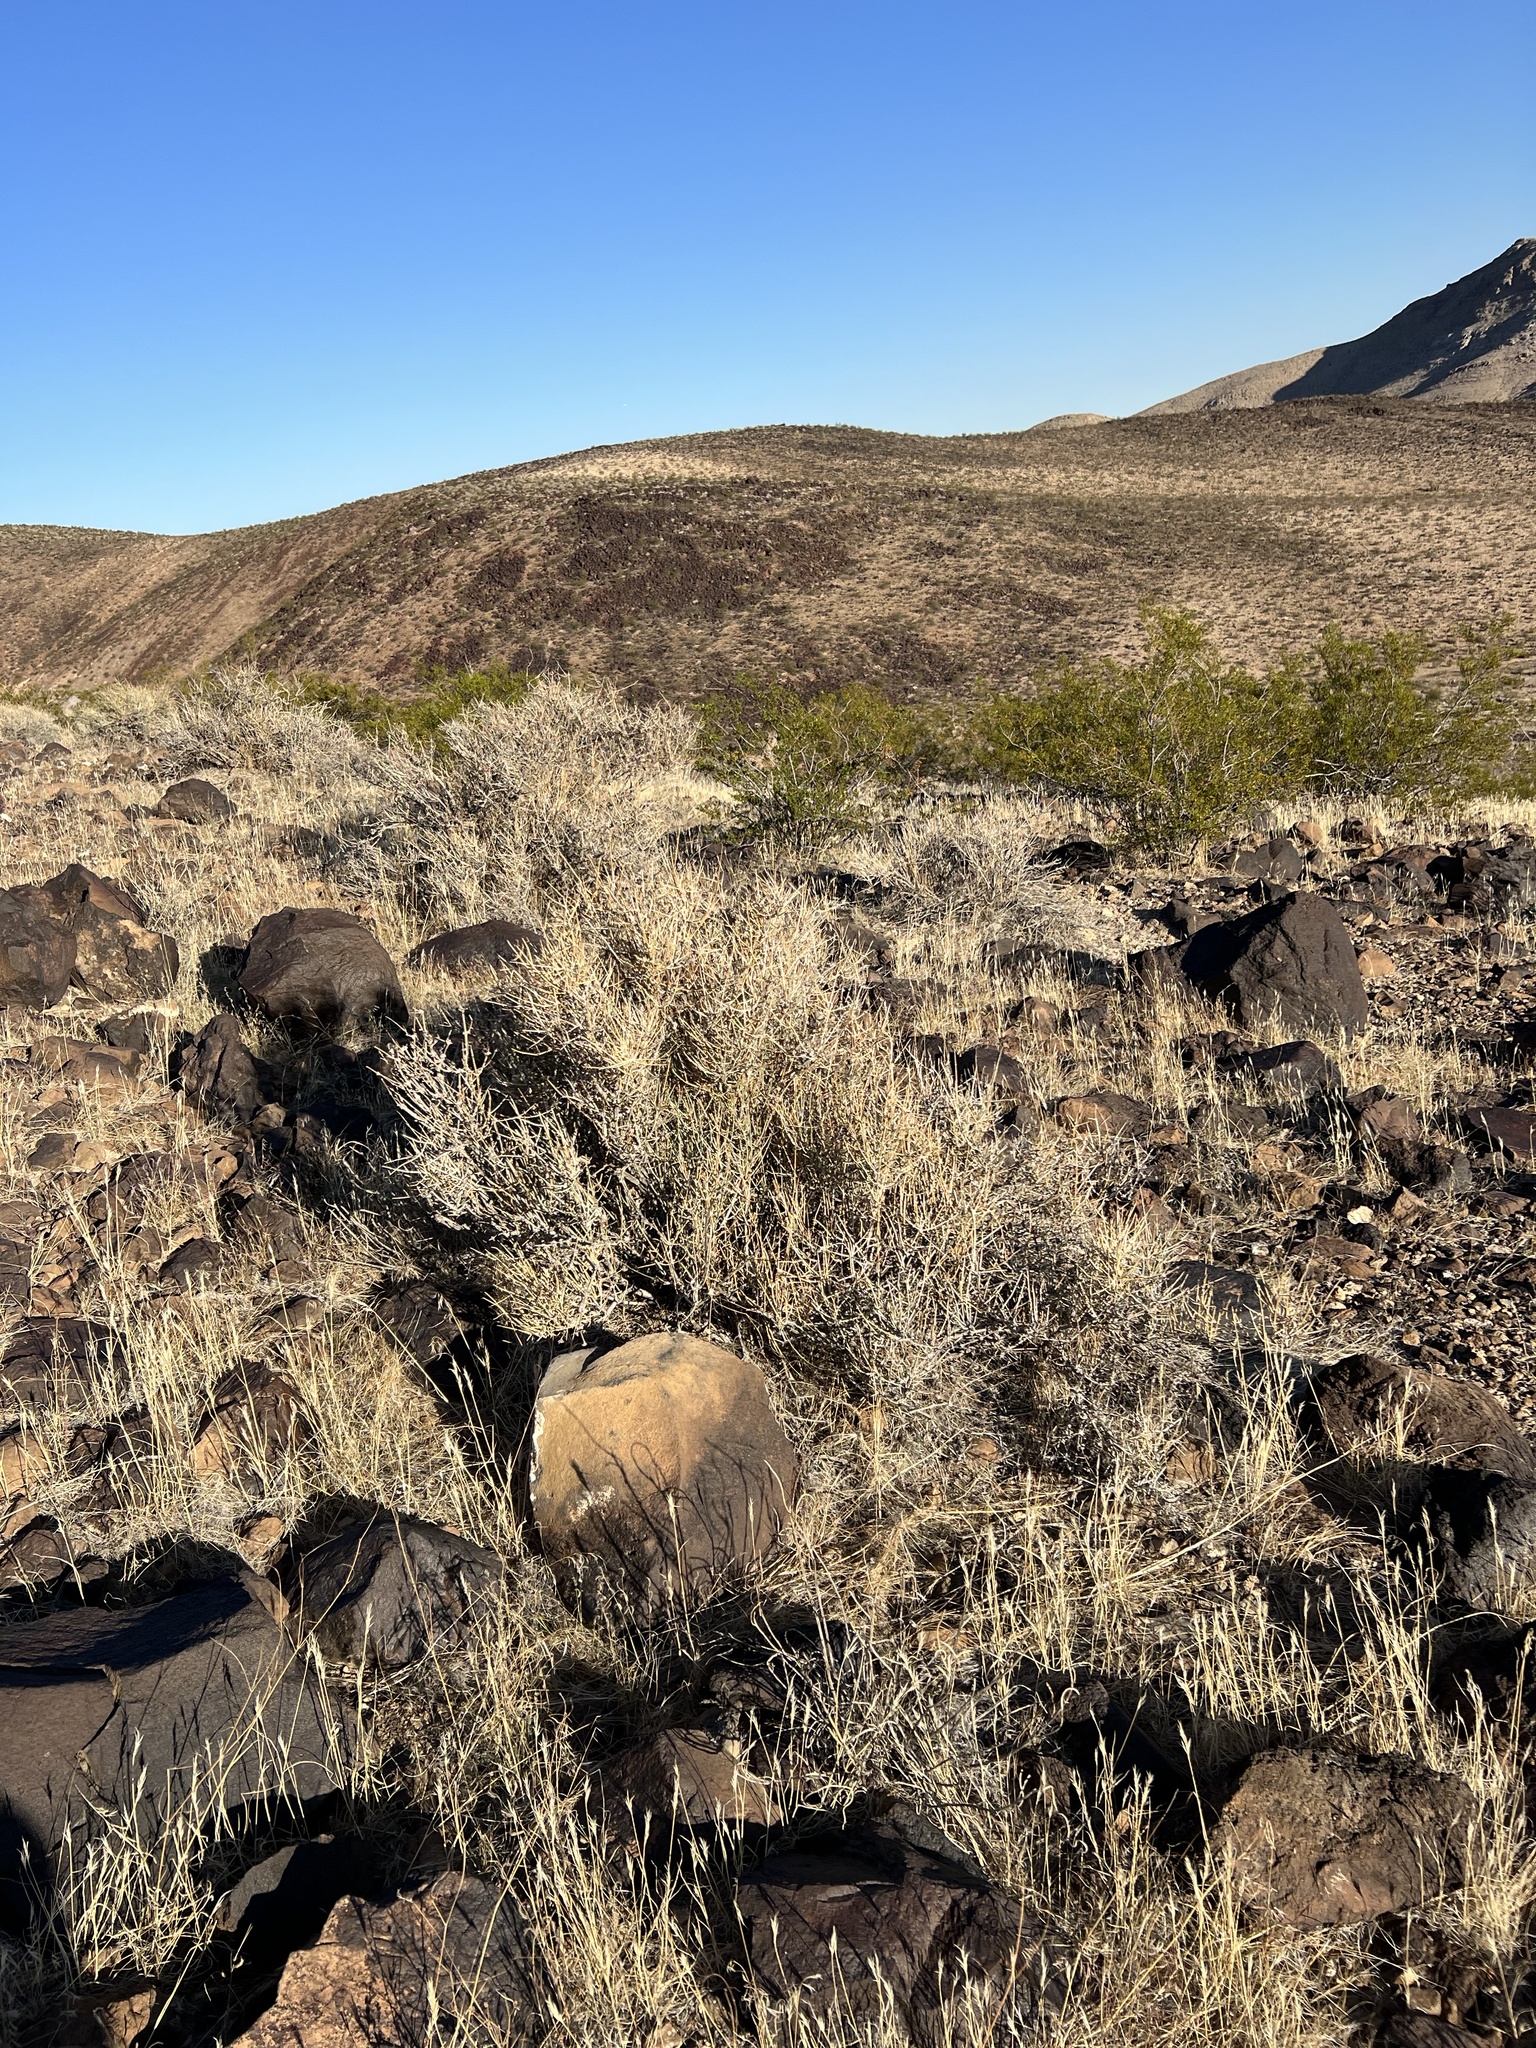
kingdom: Plantae
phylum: Tracheophyta
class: Gnetopsida
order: Ephedrales
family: Ephedraceae
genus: Ephedra
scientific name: Ephedra nevadensis
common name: Gray ephedra
